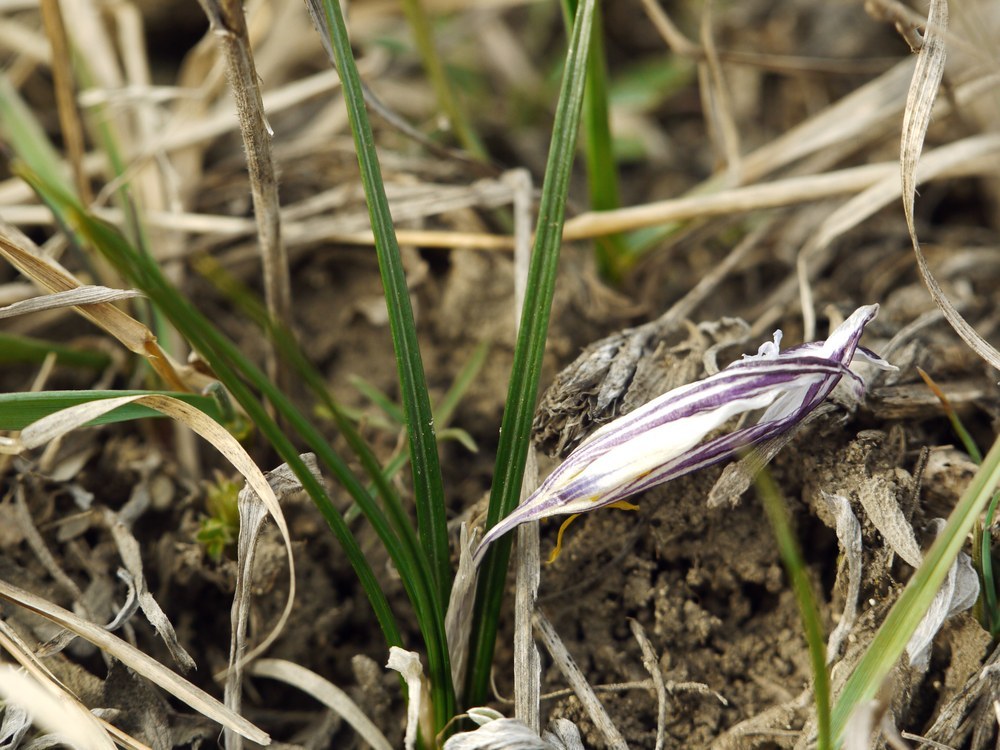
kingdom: Plantae
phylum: Tracheophyta
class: Liliopsida
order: Asparagales
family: Iridaceae
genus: Crocus
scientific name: Crocus reticulatus
